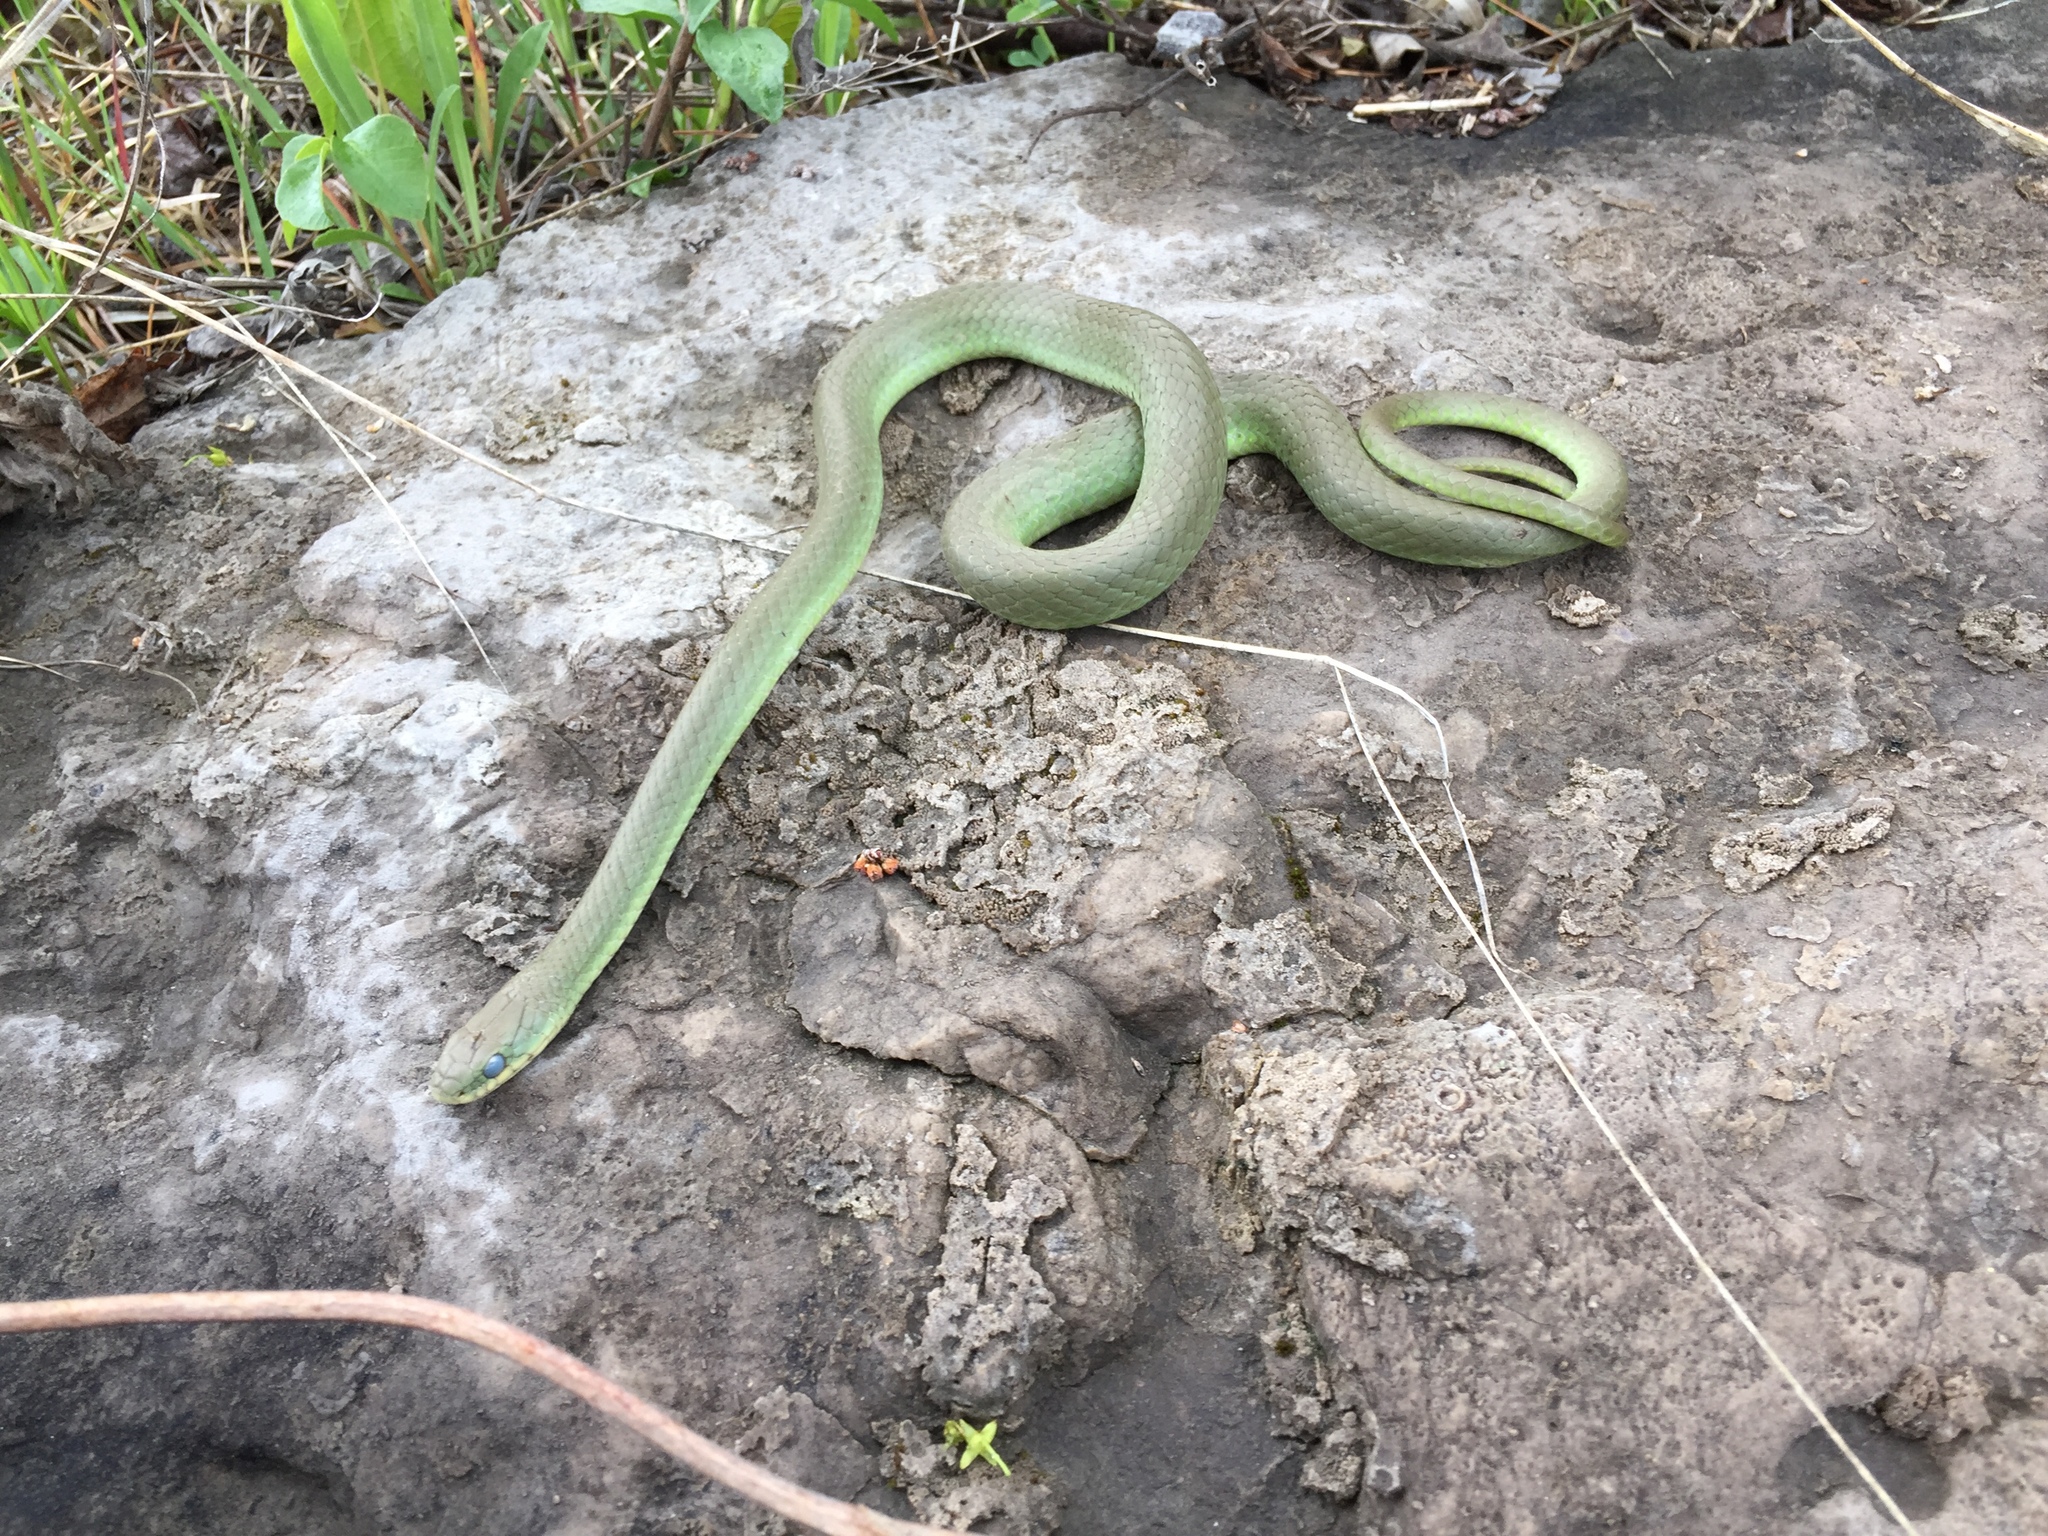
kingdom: Animalia
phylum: Chordata
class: Squamata
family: Colubridae
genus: Opheodrys
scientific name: Opheodrys vernalis
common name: Smooth green snake
